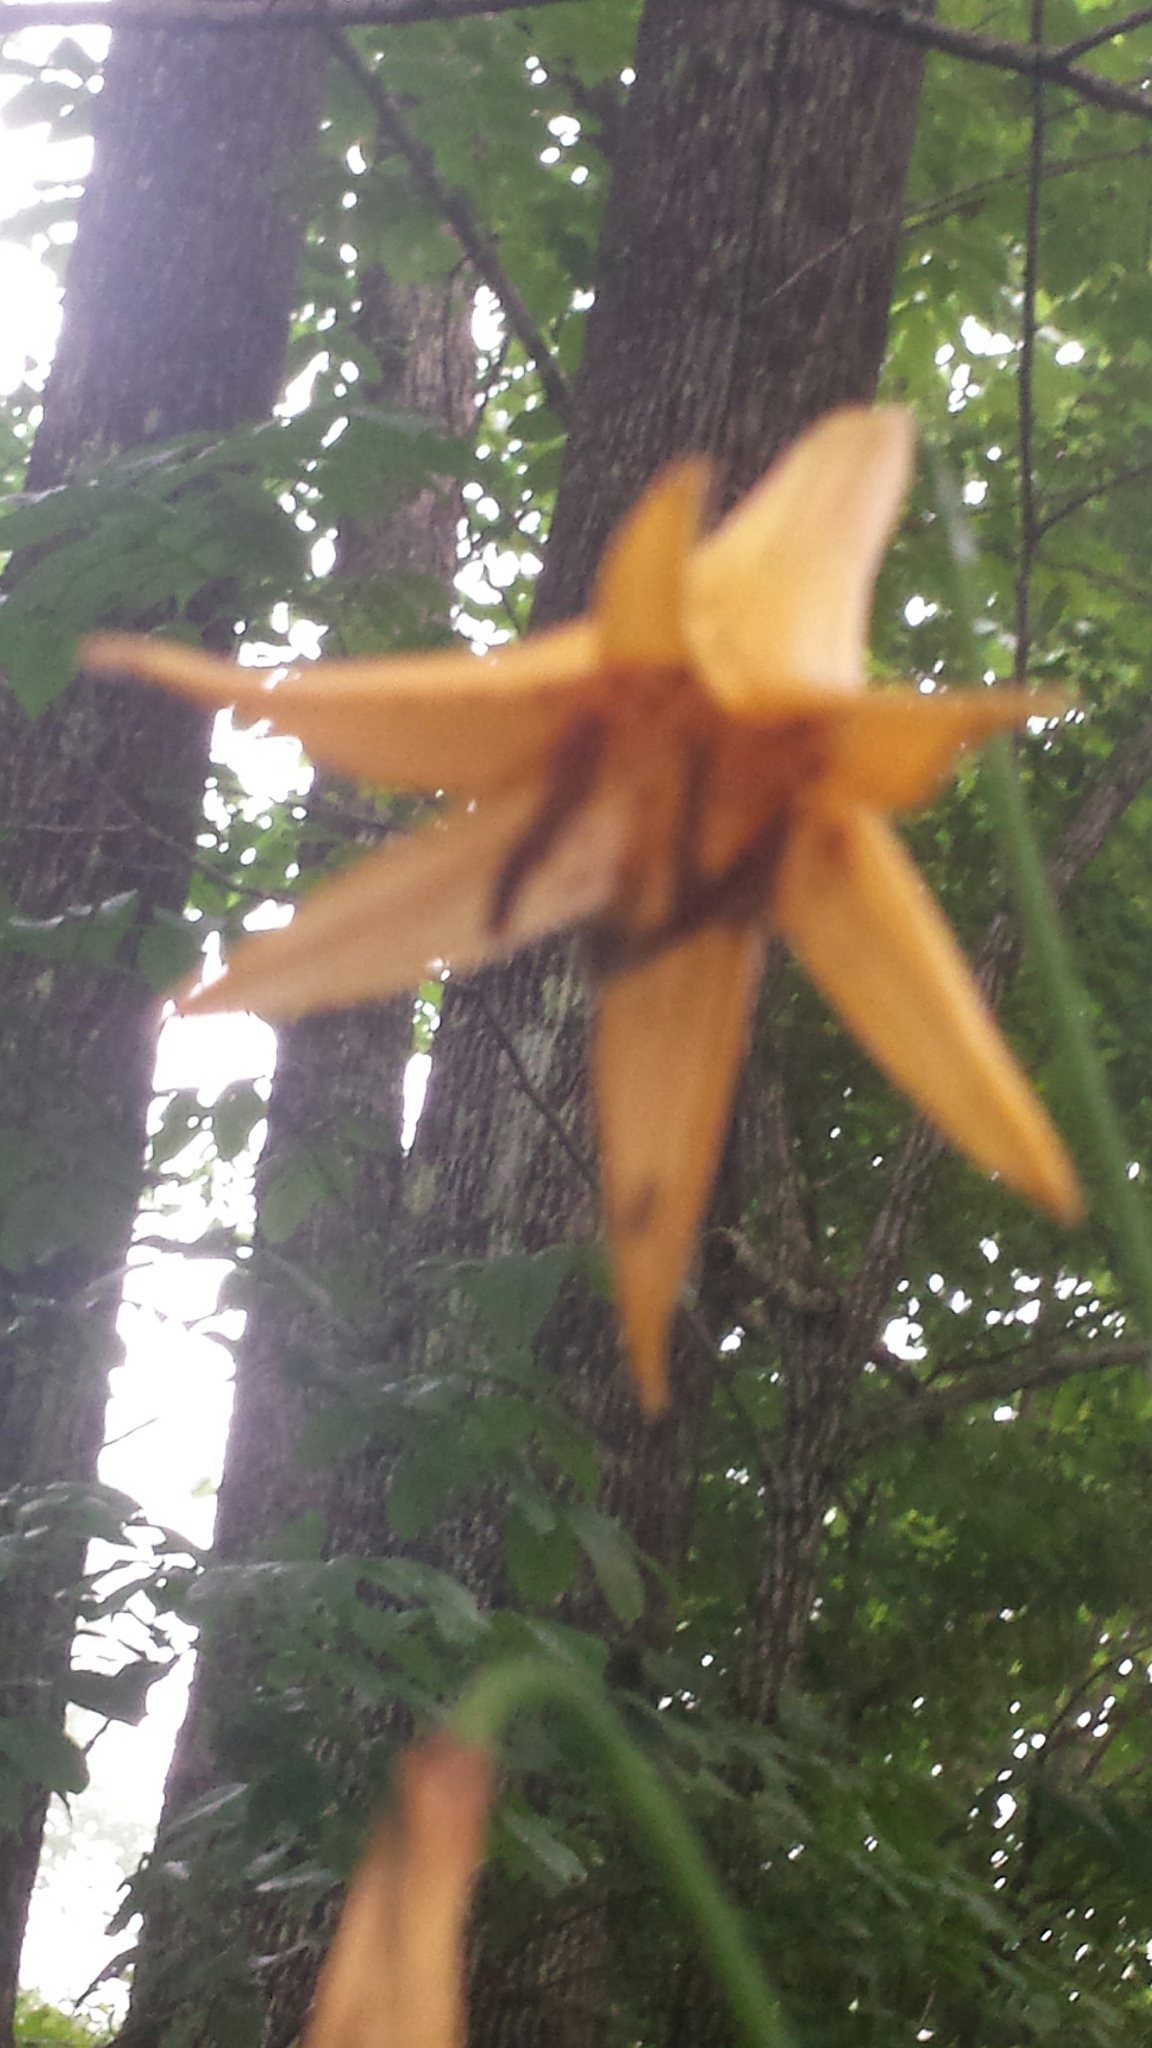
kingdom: Plantae
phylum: Tracheophyta
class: Liliopsida
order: Liliales
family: Liliaceae
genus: Lilium
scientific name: Lilium canadense
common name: Canada lily
